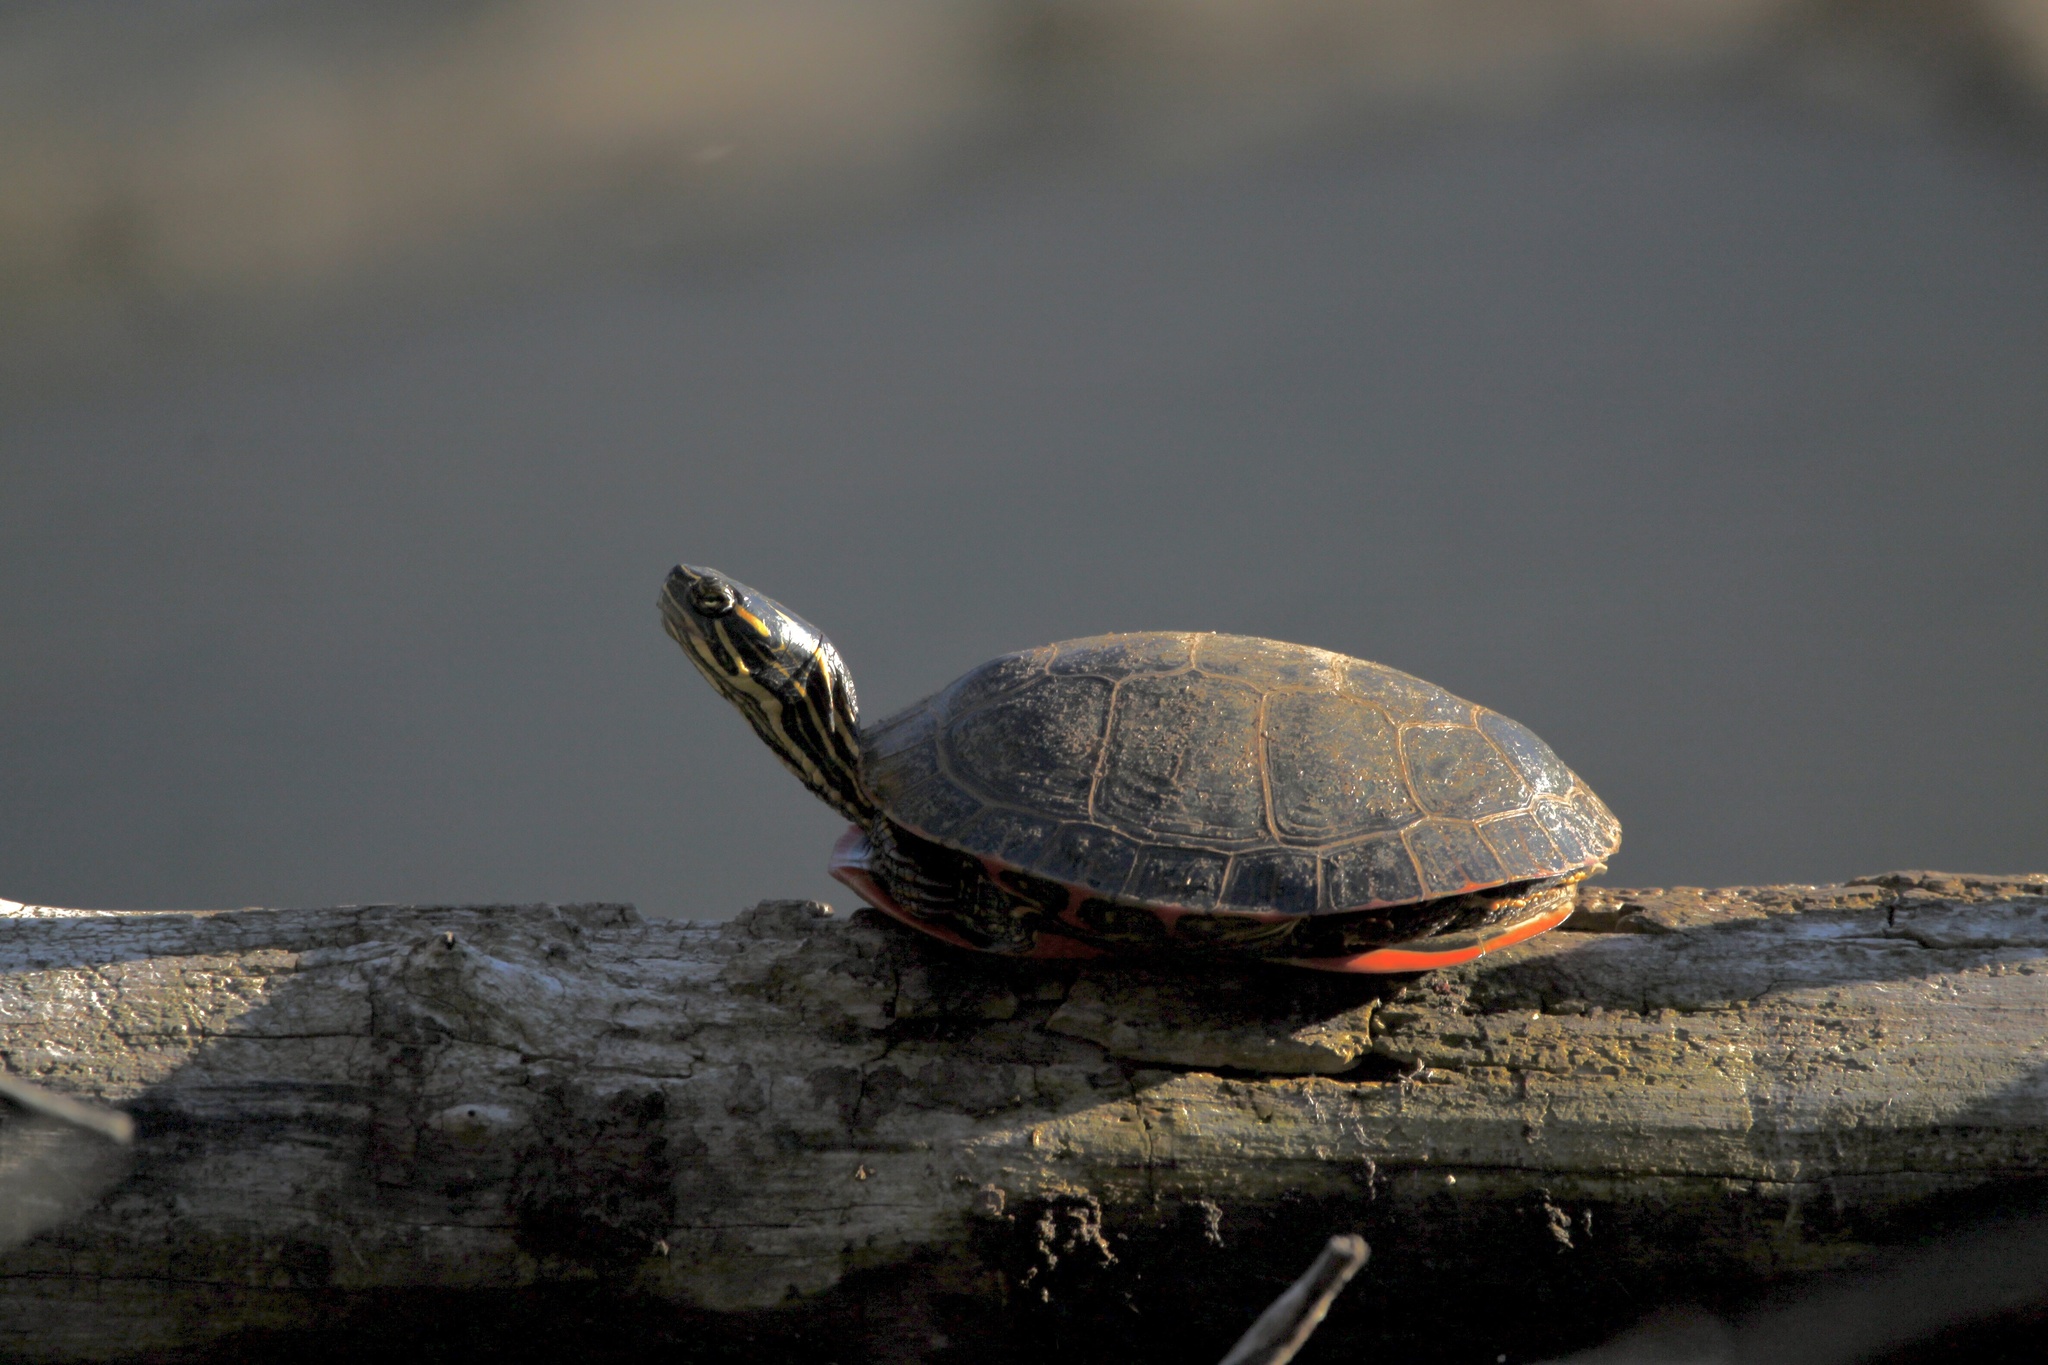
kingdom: Animalia
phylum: Chordata
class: Testudines
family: Emydidae
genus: Chrysemys
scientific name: Chrysemys picta
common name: Painted turtle
